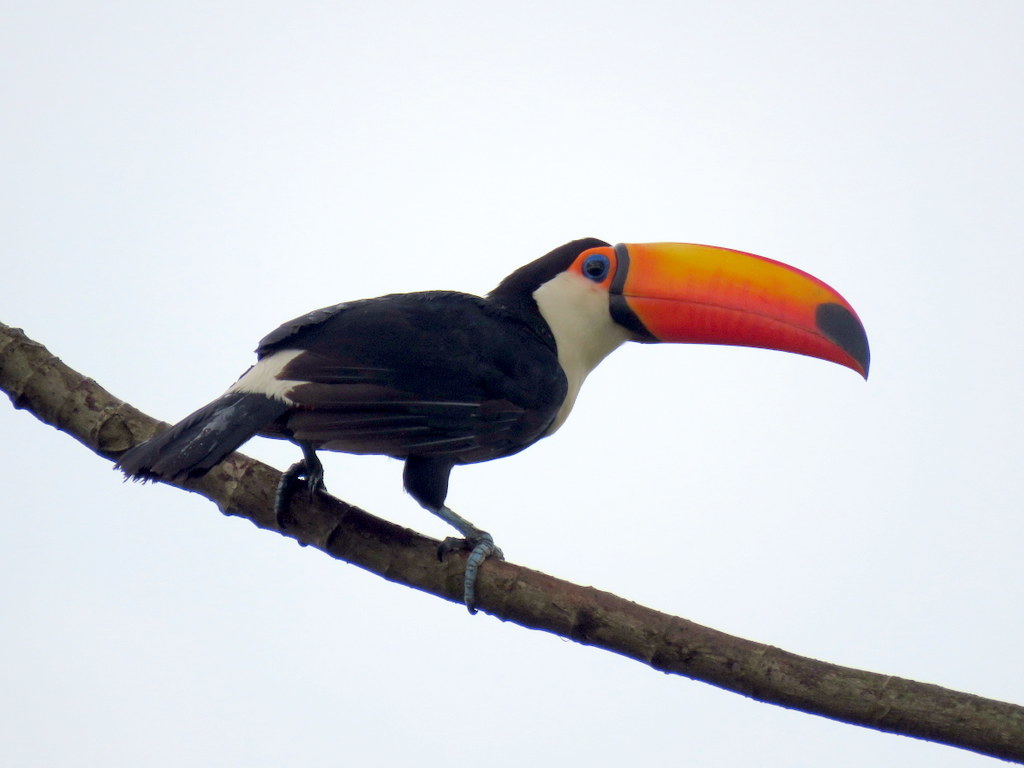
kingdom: Animalia
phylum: Chordata
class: Aves
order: Piciformes
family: Ramphastidae
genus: Ramphastos
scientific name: Ramphastos toco
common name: Toco toucan
